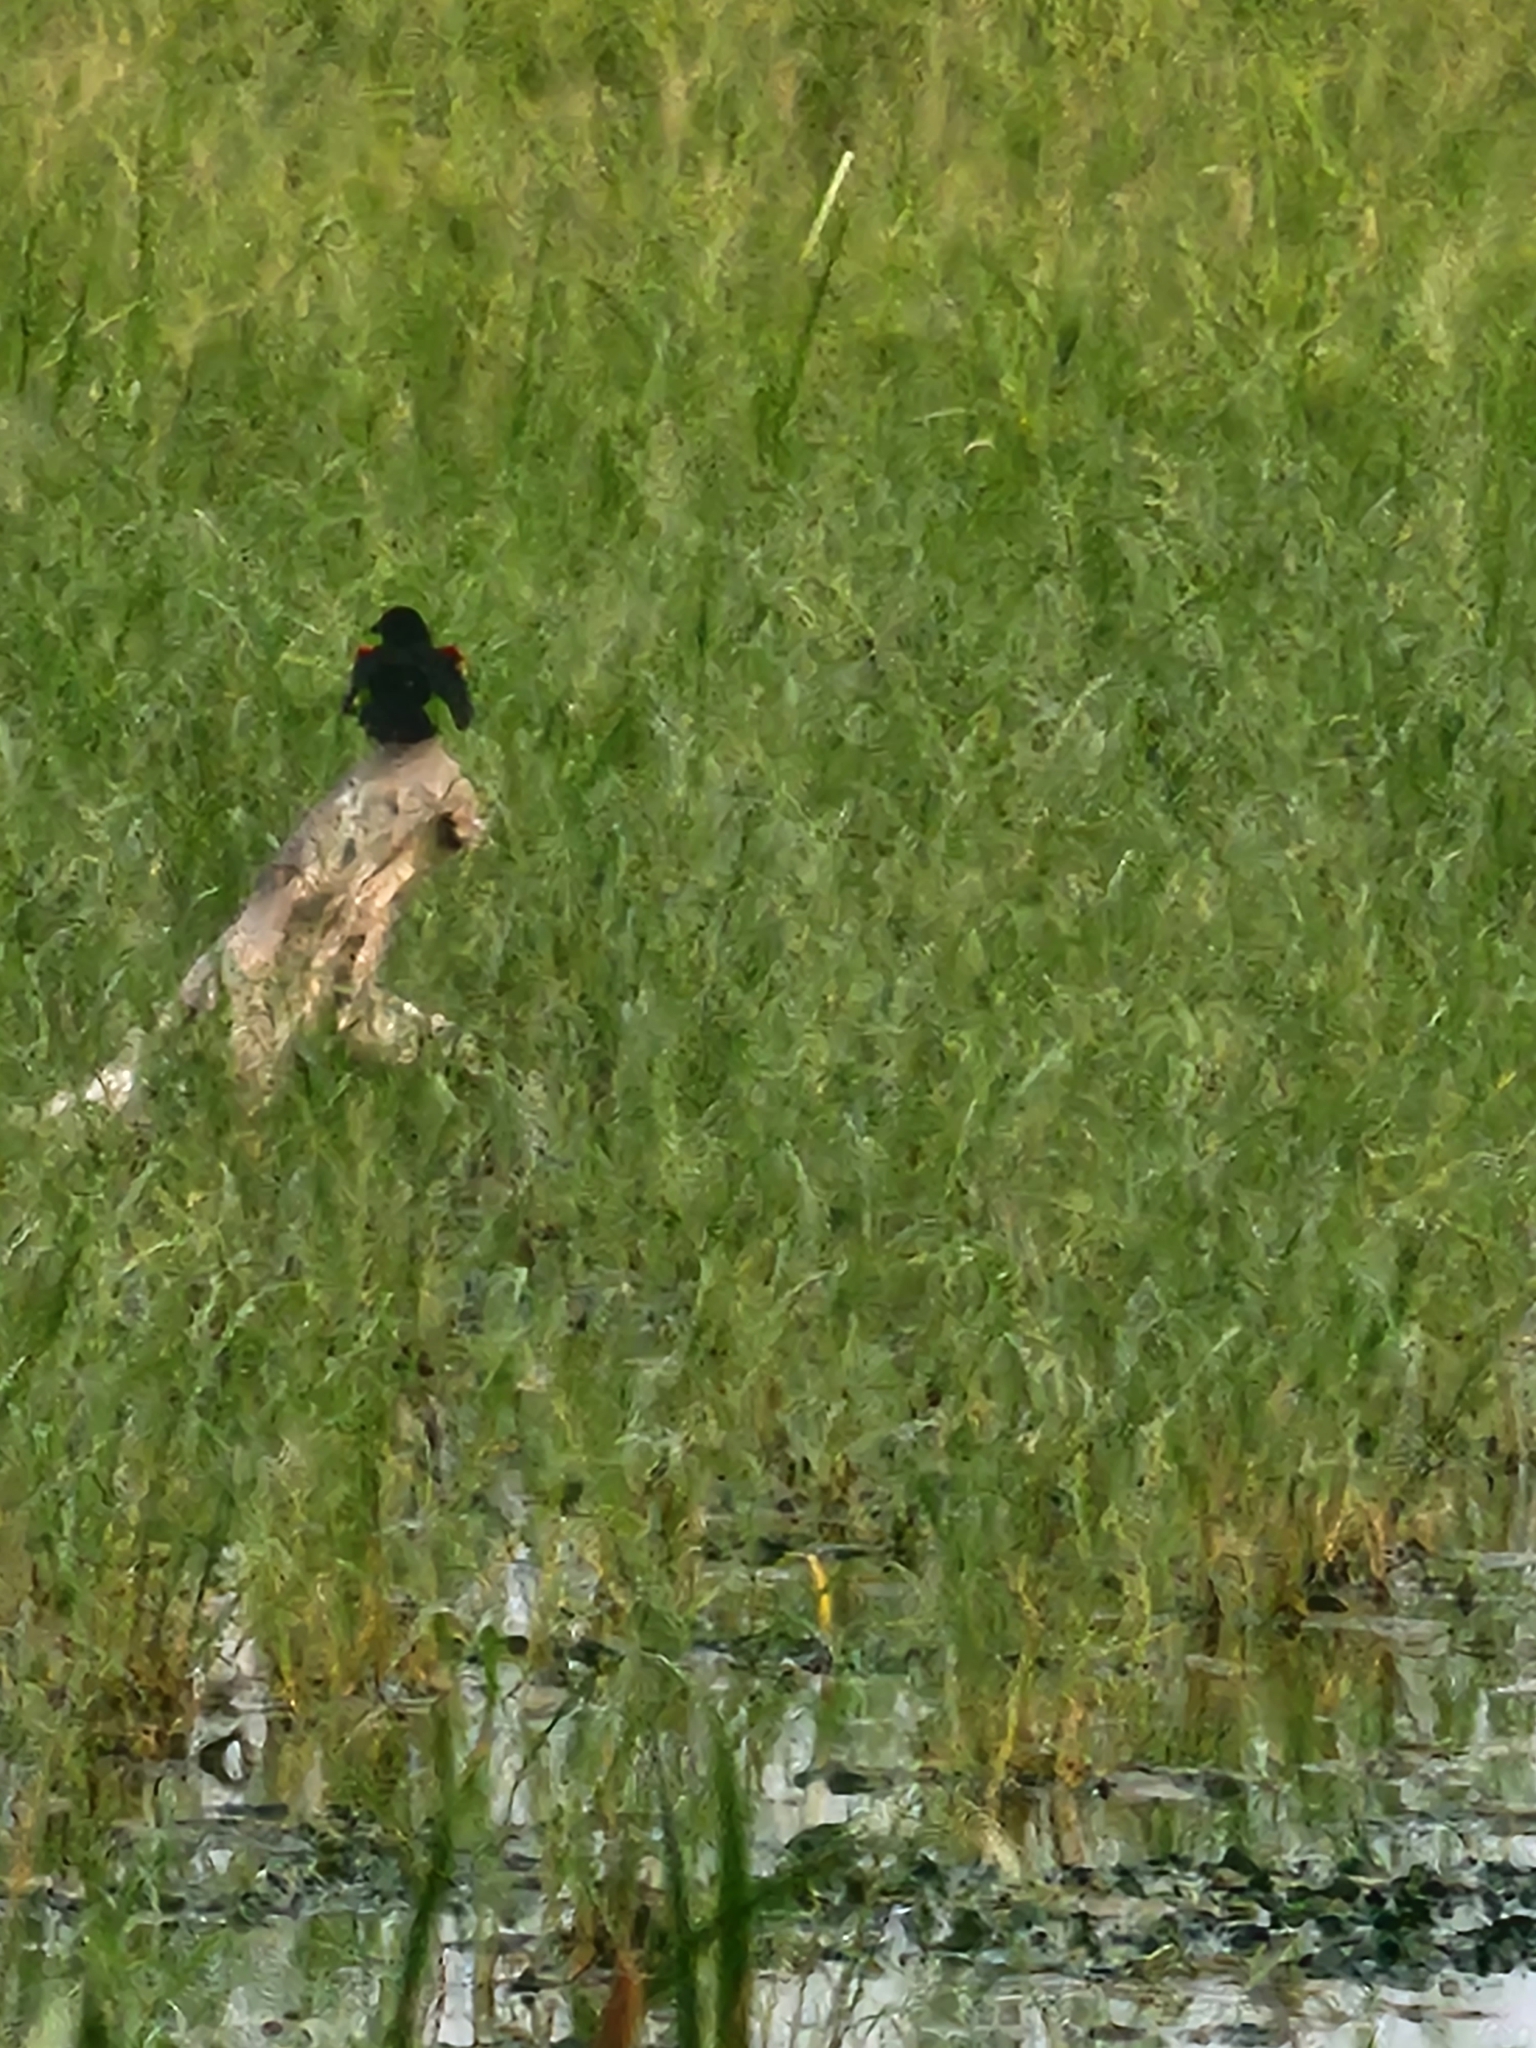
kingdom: Animalia
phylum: Chordata
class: Aves
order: Passeriformes
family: Icteridae
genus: Agelaius
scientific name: Agelaius phoeniceus
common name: Red-winged blackbird
